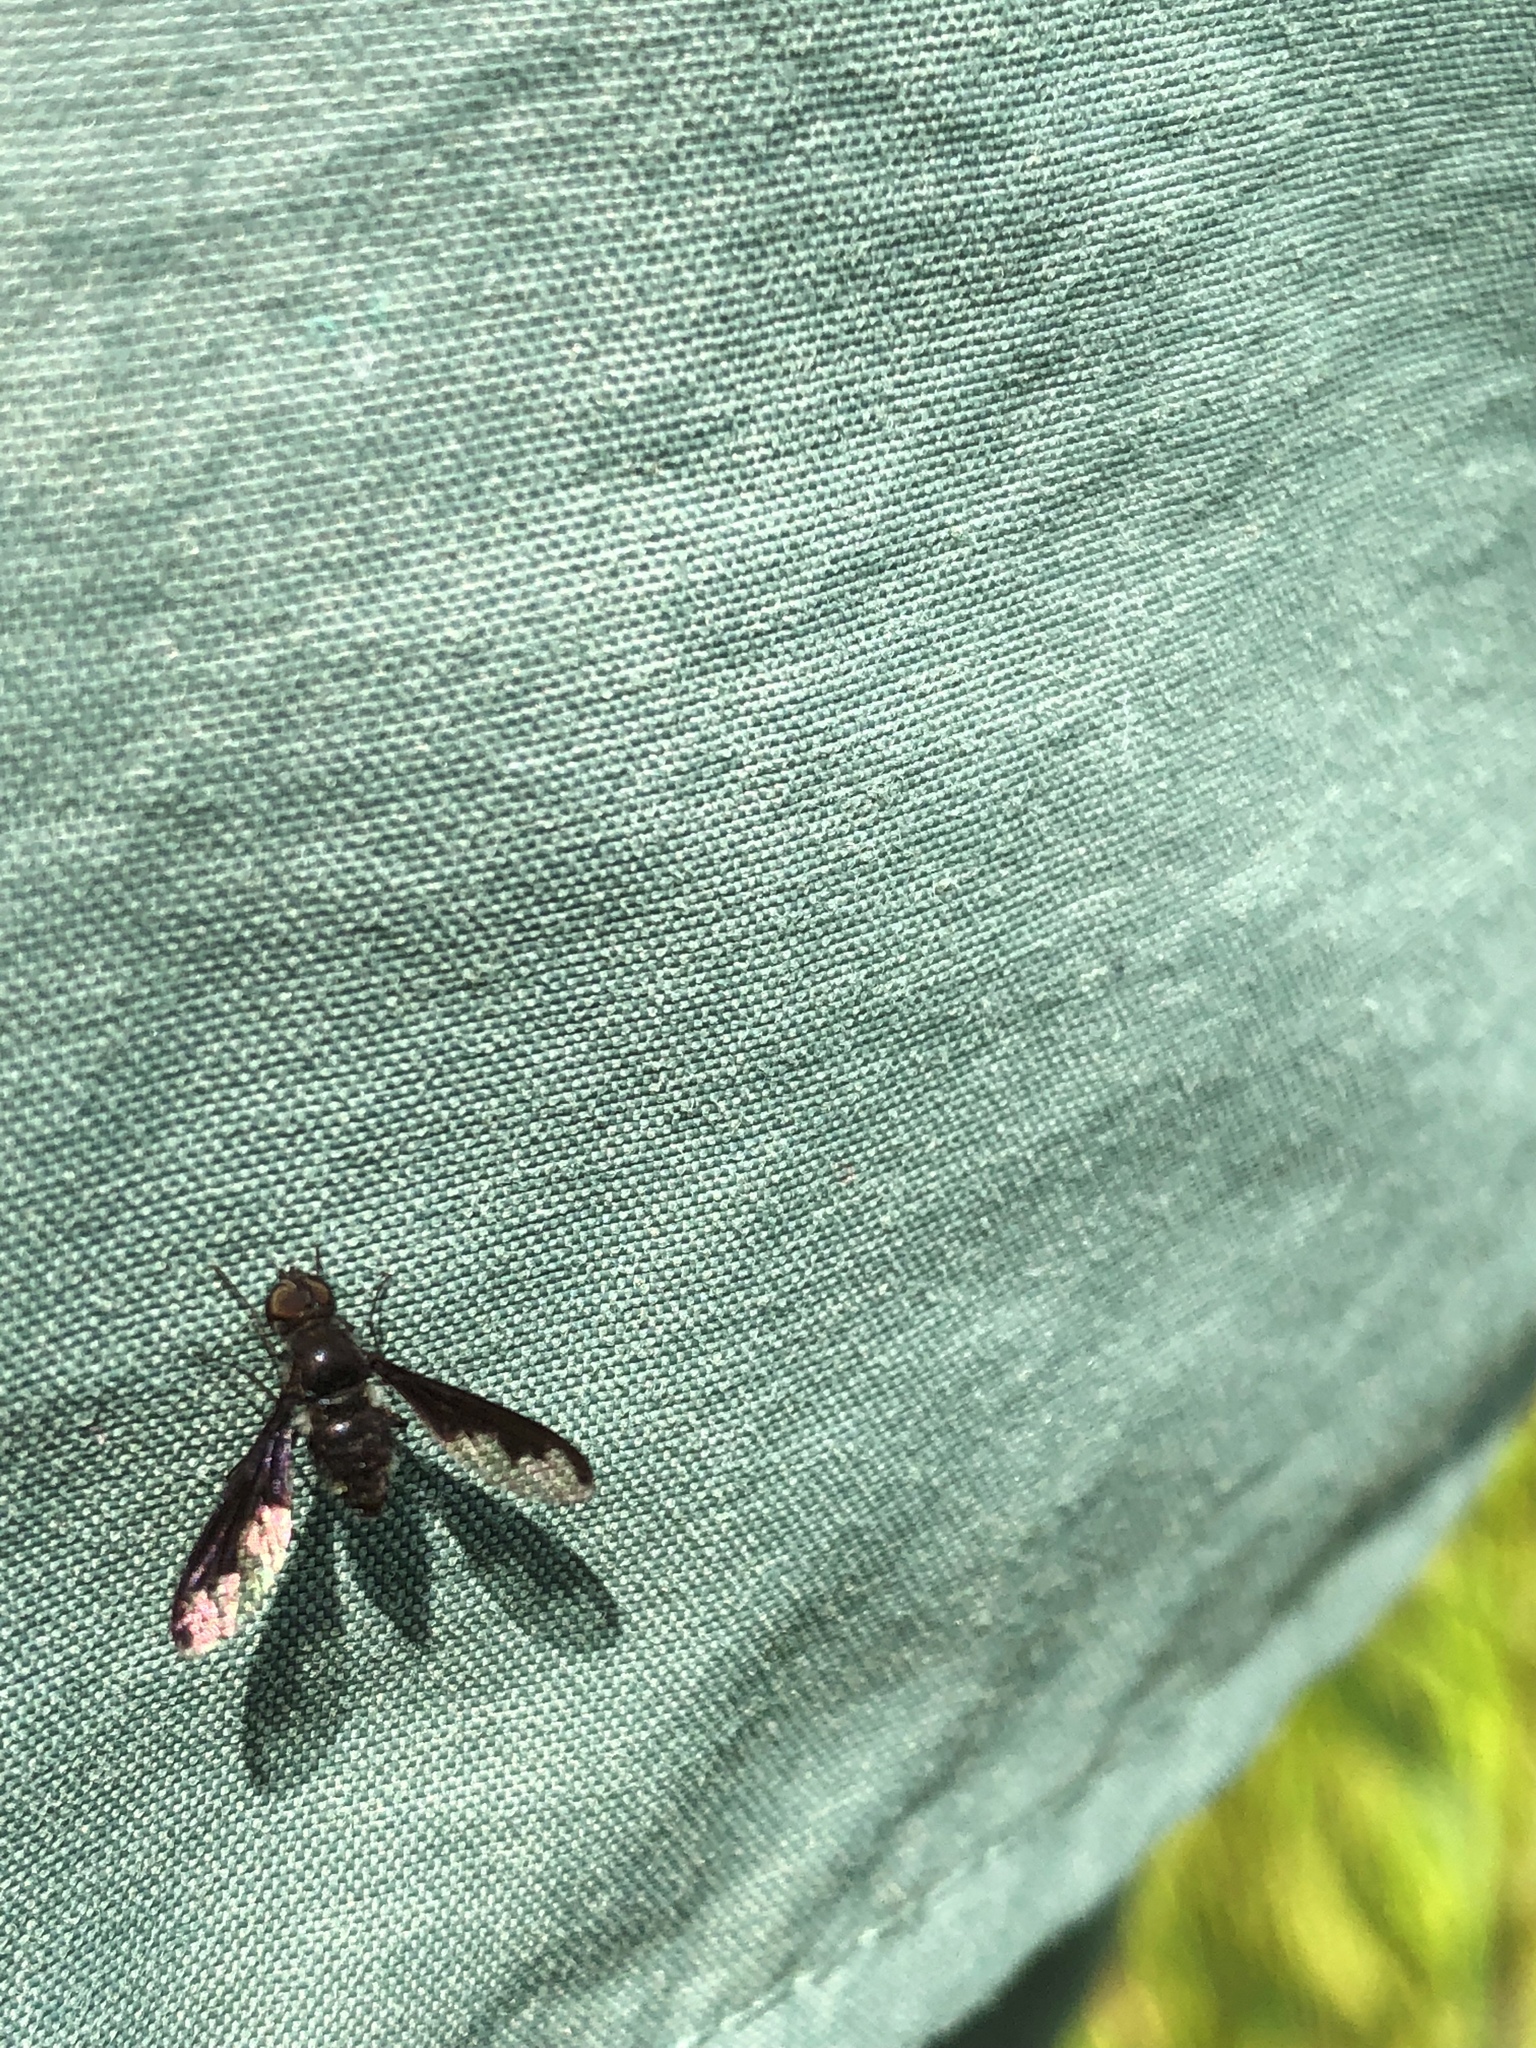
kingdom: Animalia
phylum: Arthropoda
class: Insecta
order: Diptera
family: Bombyliidae
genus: Anthrax
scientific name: Anthrax argyropygus
